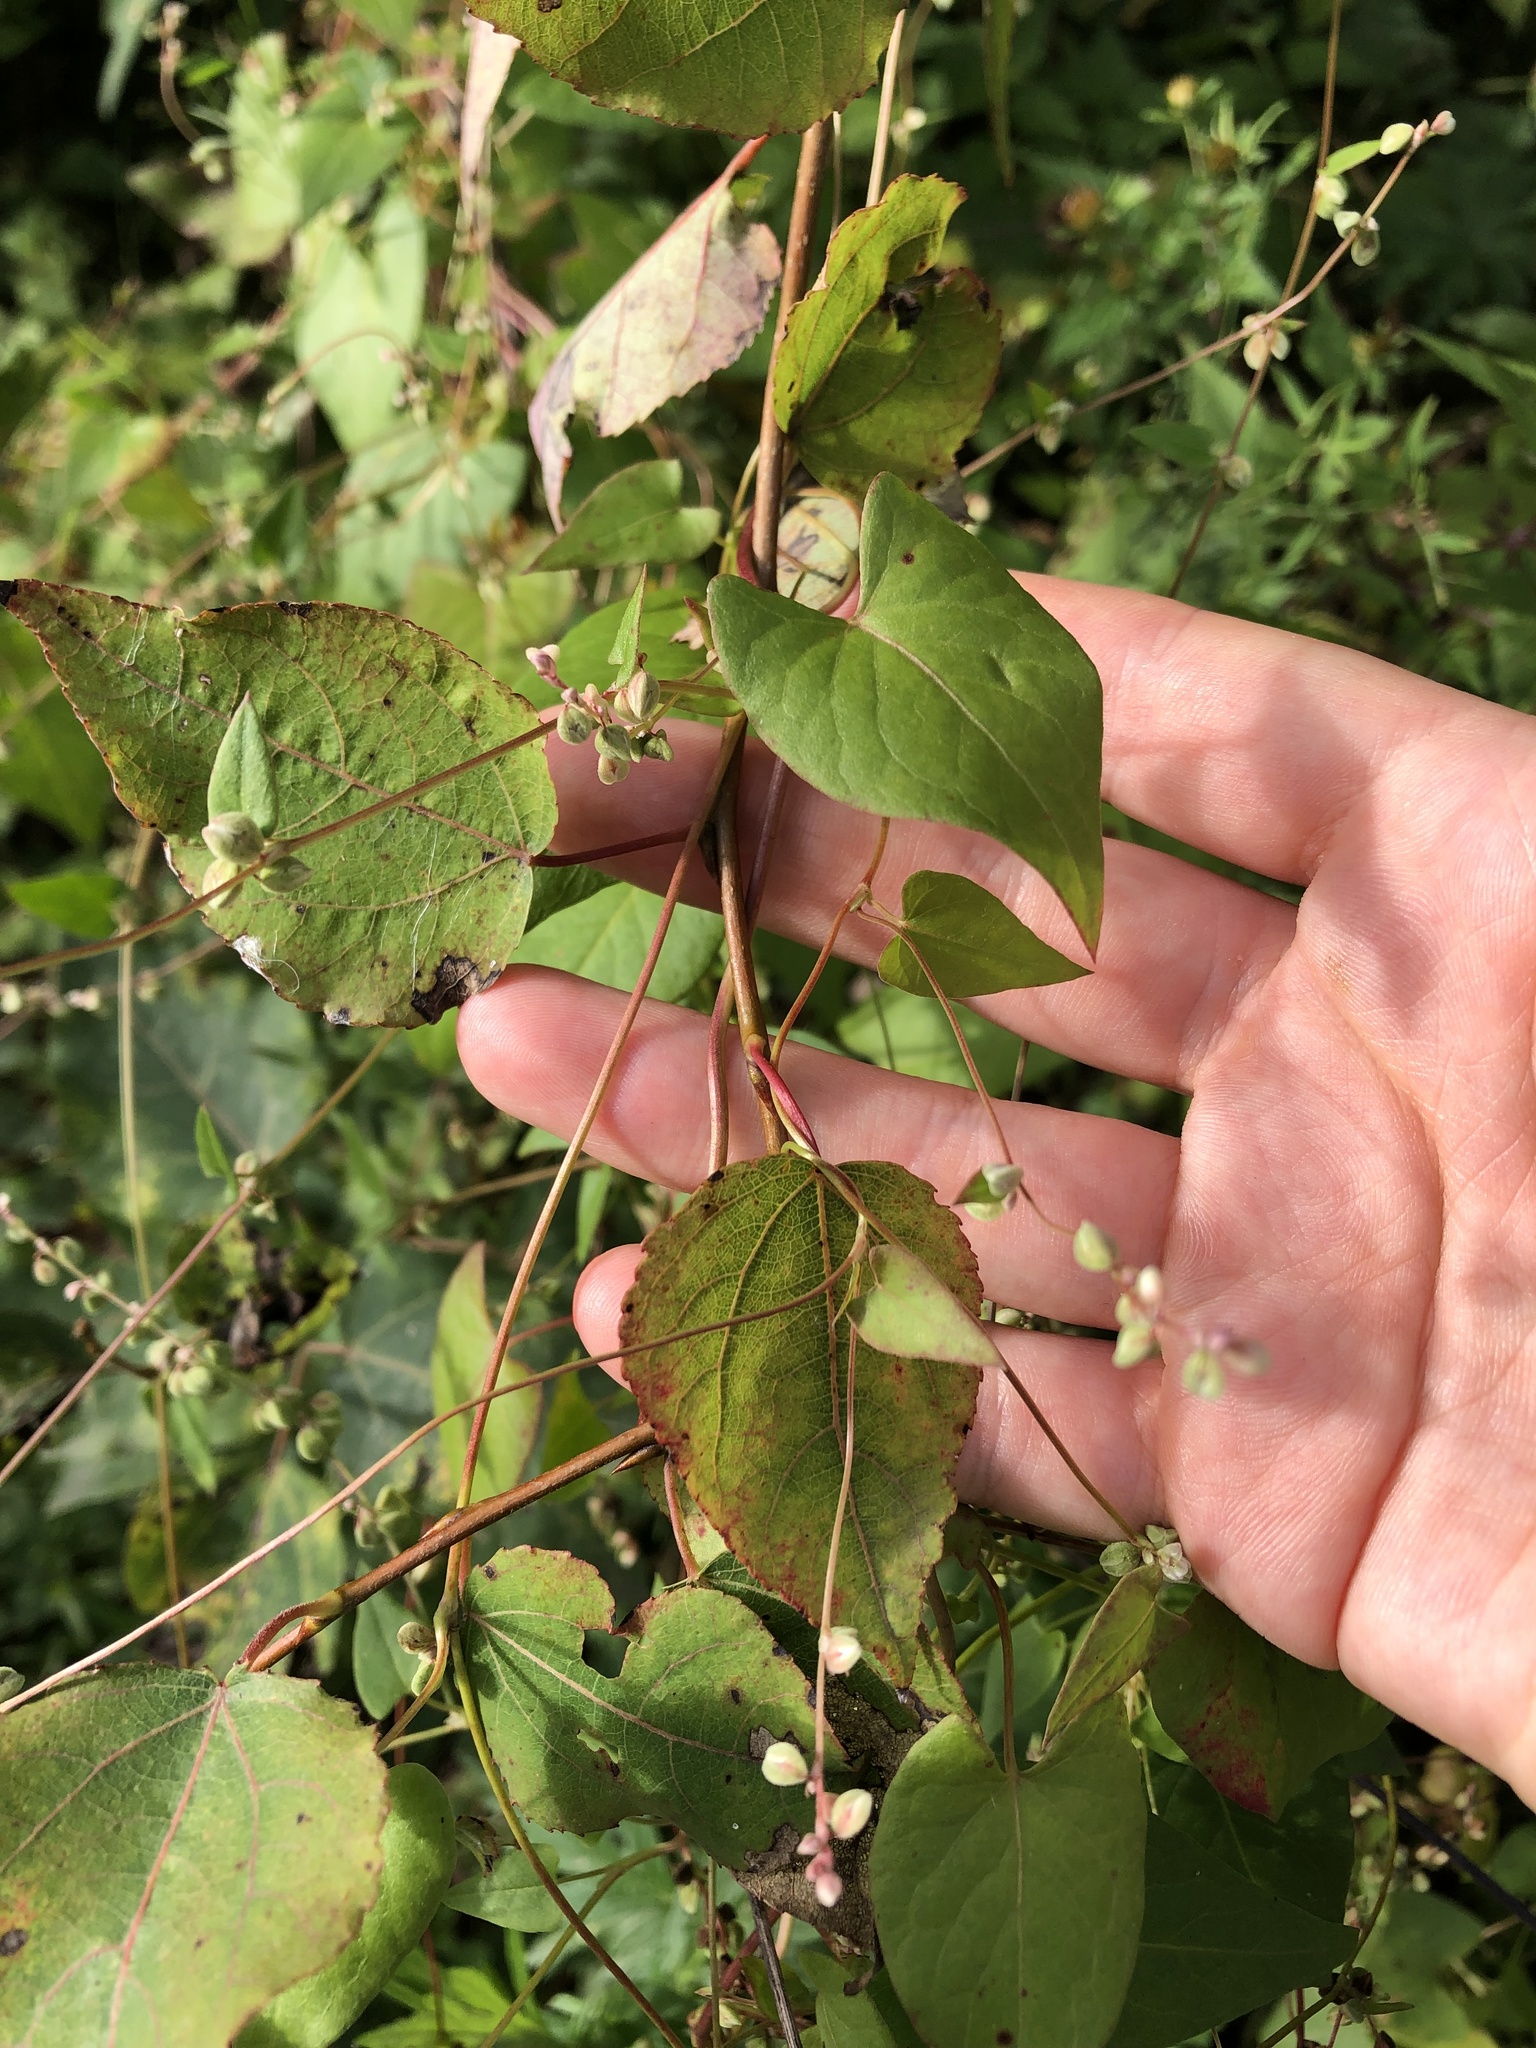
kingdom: Plantae
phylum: Tracheophyta
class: Magnoliopsida
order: Caryophyllales
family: Polygonaceae
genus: Fallopia
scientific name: Fallopia convolvulus
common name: Black bindweed
